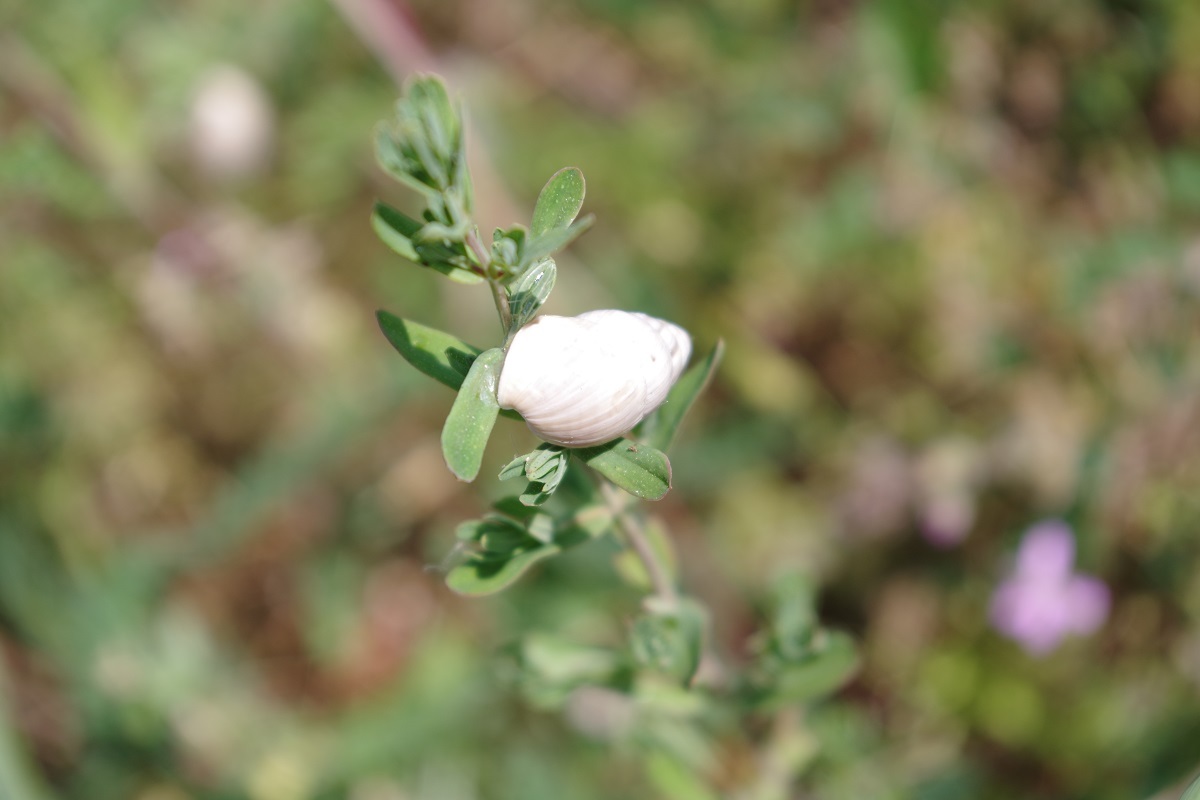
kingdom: Animalia
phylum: Mollusca
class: Gastropoda
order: Stylommatophora
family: Enidae
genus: Zebrina
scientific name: Zebrina detrita
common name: Large bulin
